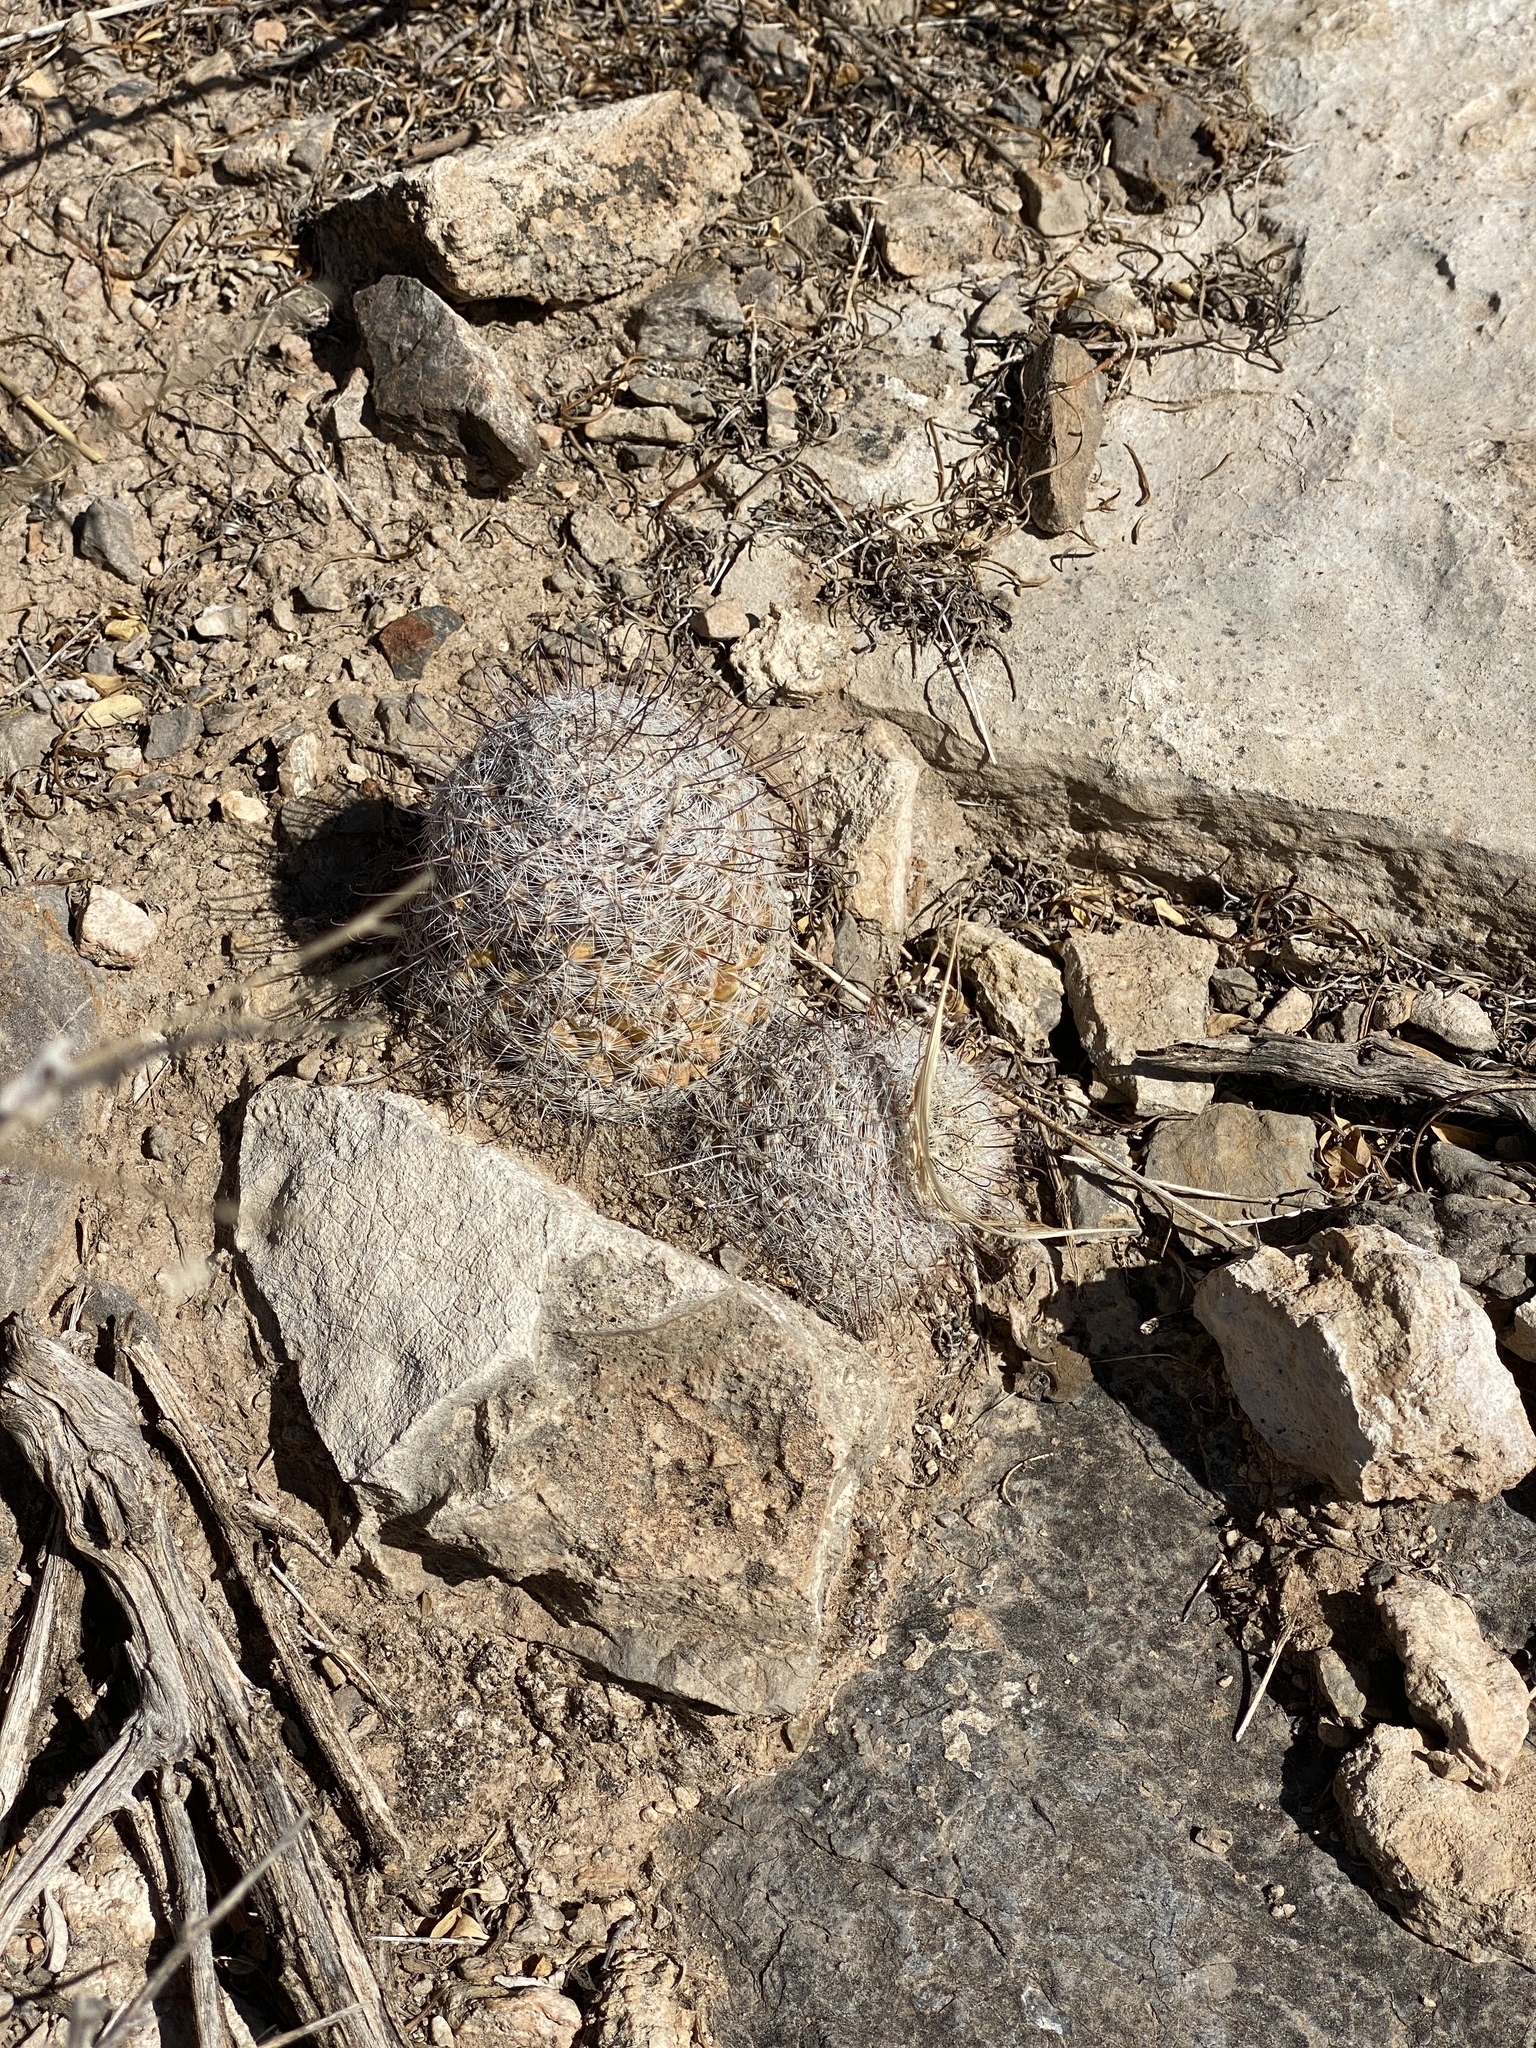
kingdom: Plantae
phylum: Tracheophyta
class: Magnoliopsida
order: Caryophyllales
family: Cactaceae
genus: Cochemiea
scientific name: Cochemiea grahamii
